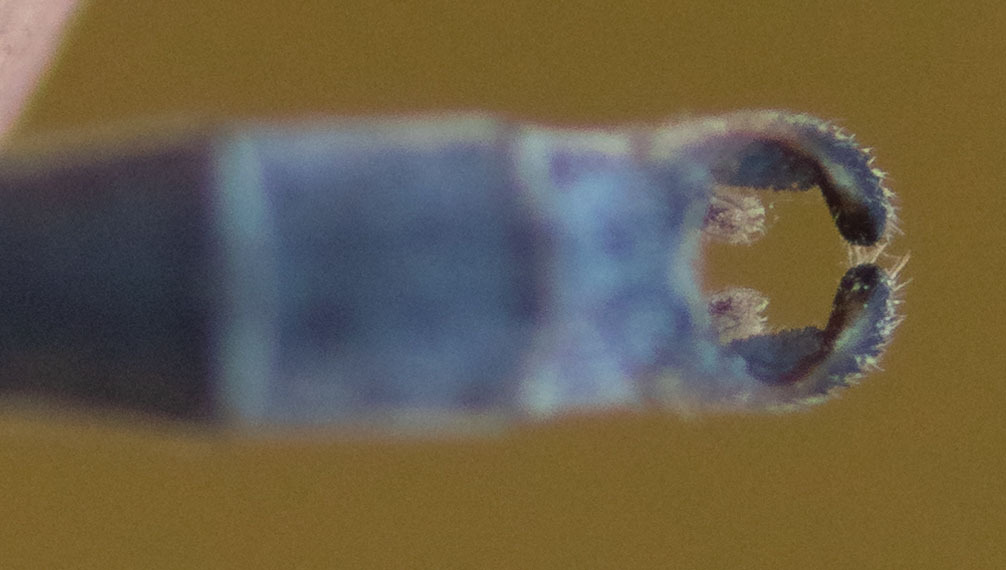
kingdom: Animalia
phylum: Arthropoda
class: Insecta
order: Odonata
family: Lestidae
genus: Lestes
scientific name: Lestes congener
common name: Spotted spreadwing
